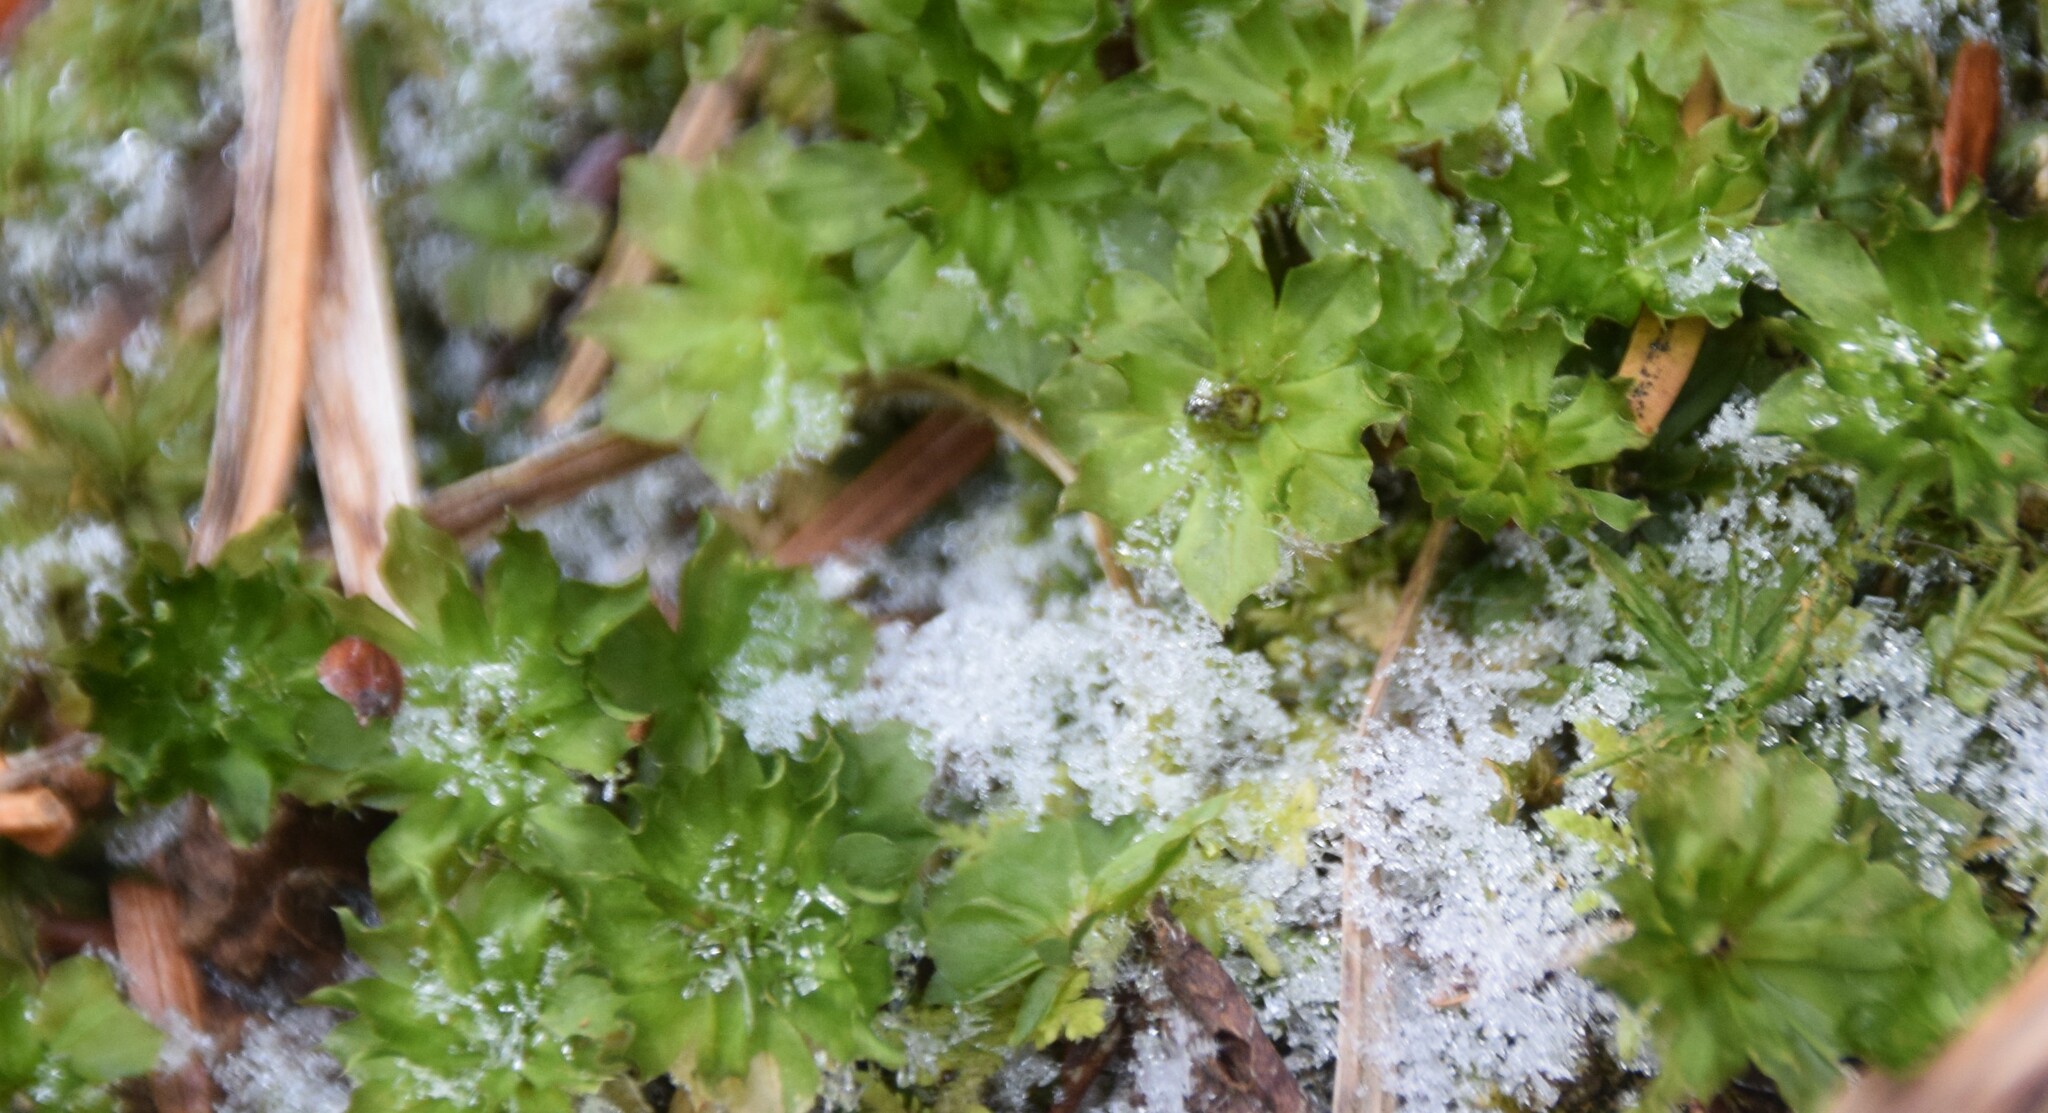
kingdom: Plantae
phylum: Bryophyta
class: Bryopsida
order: Bryales
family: Bryaceae
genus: Rhodobryum
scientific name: Rhodobryum ontariense
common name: Ontario rhodobryum moss
